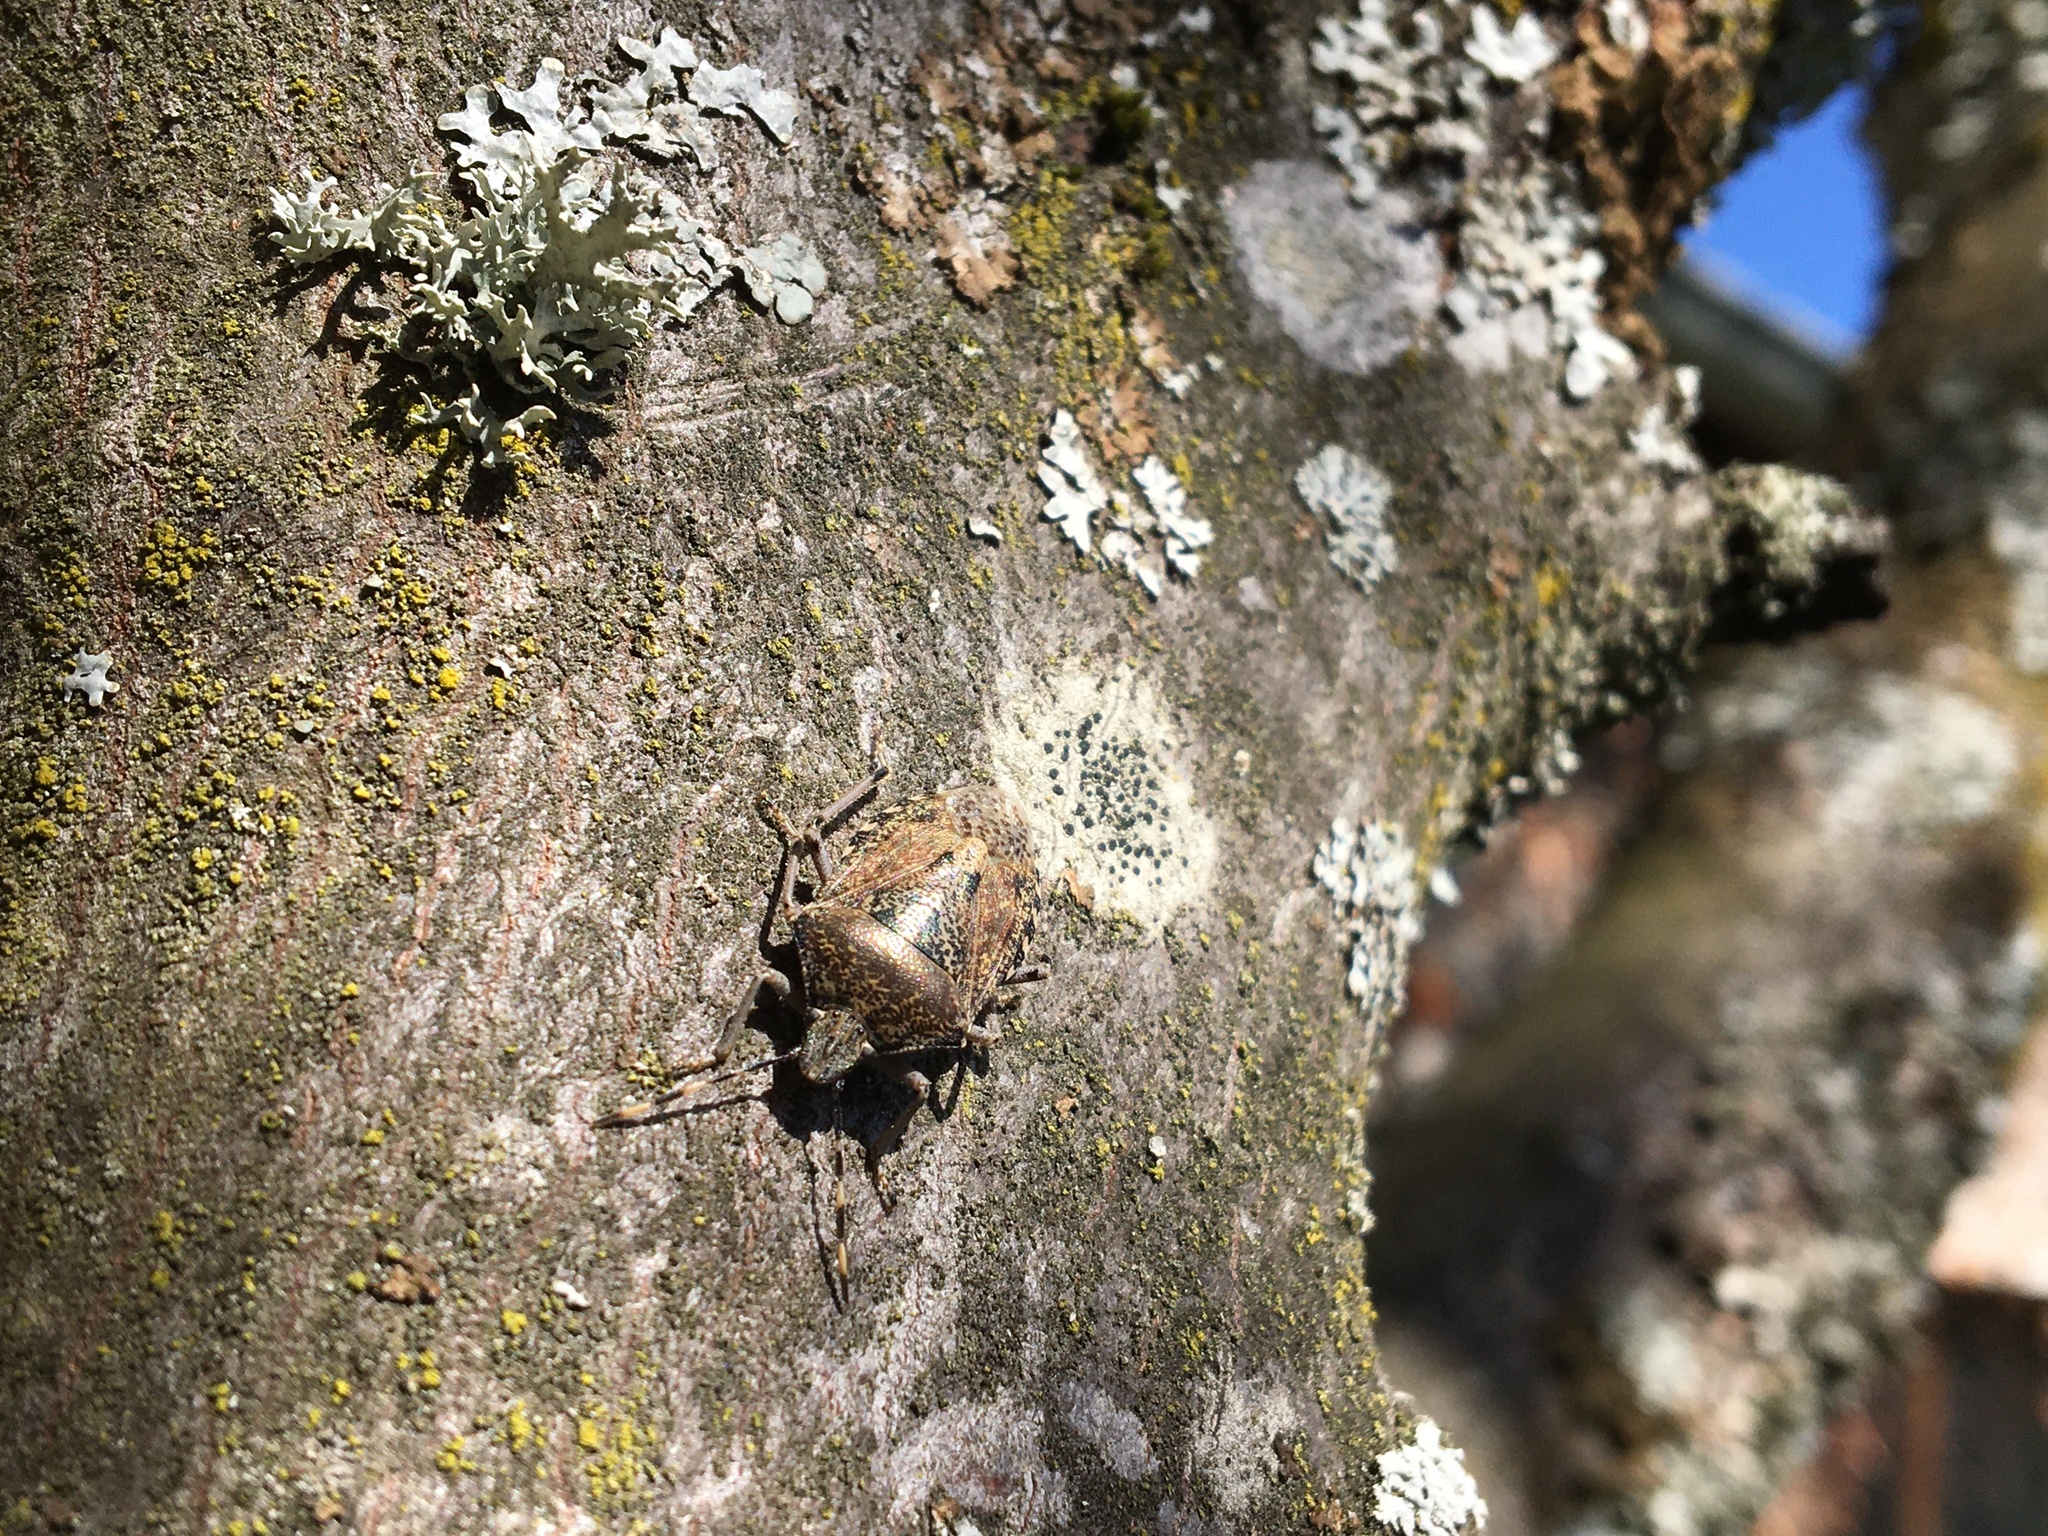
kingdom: Animalia
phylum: Arthropoda
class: Insecta
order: Hemiptera
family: Pentatomidae
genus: Rhaphigaster
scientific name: Rhaphigaster nebulosa
